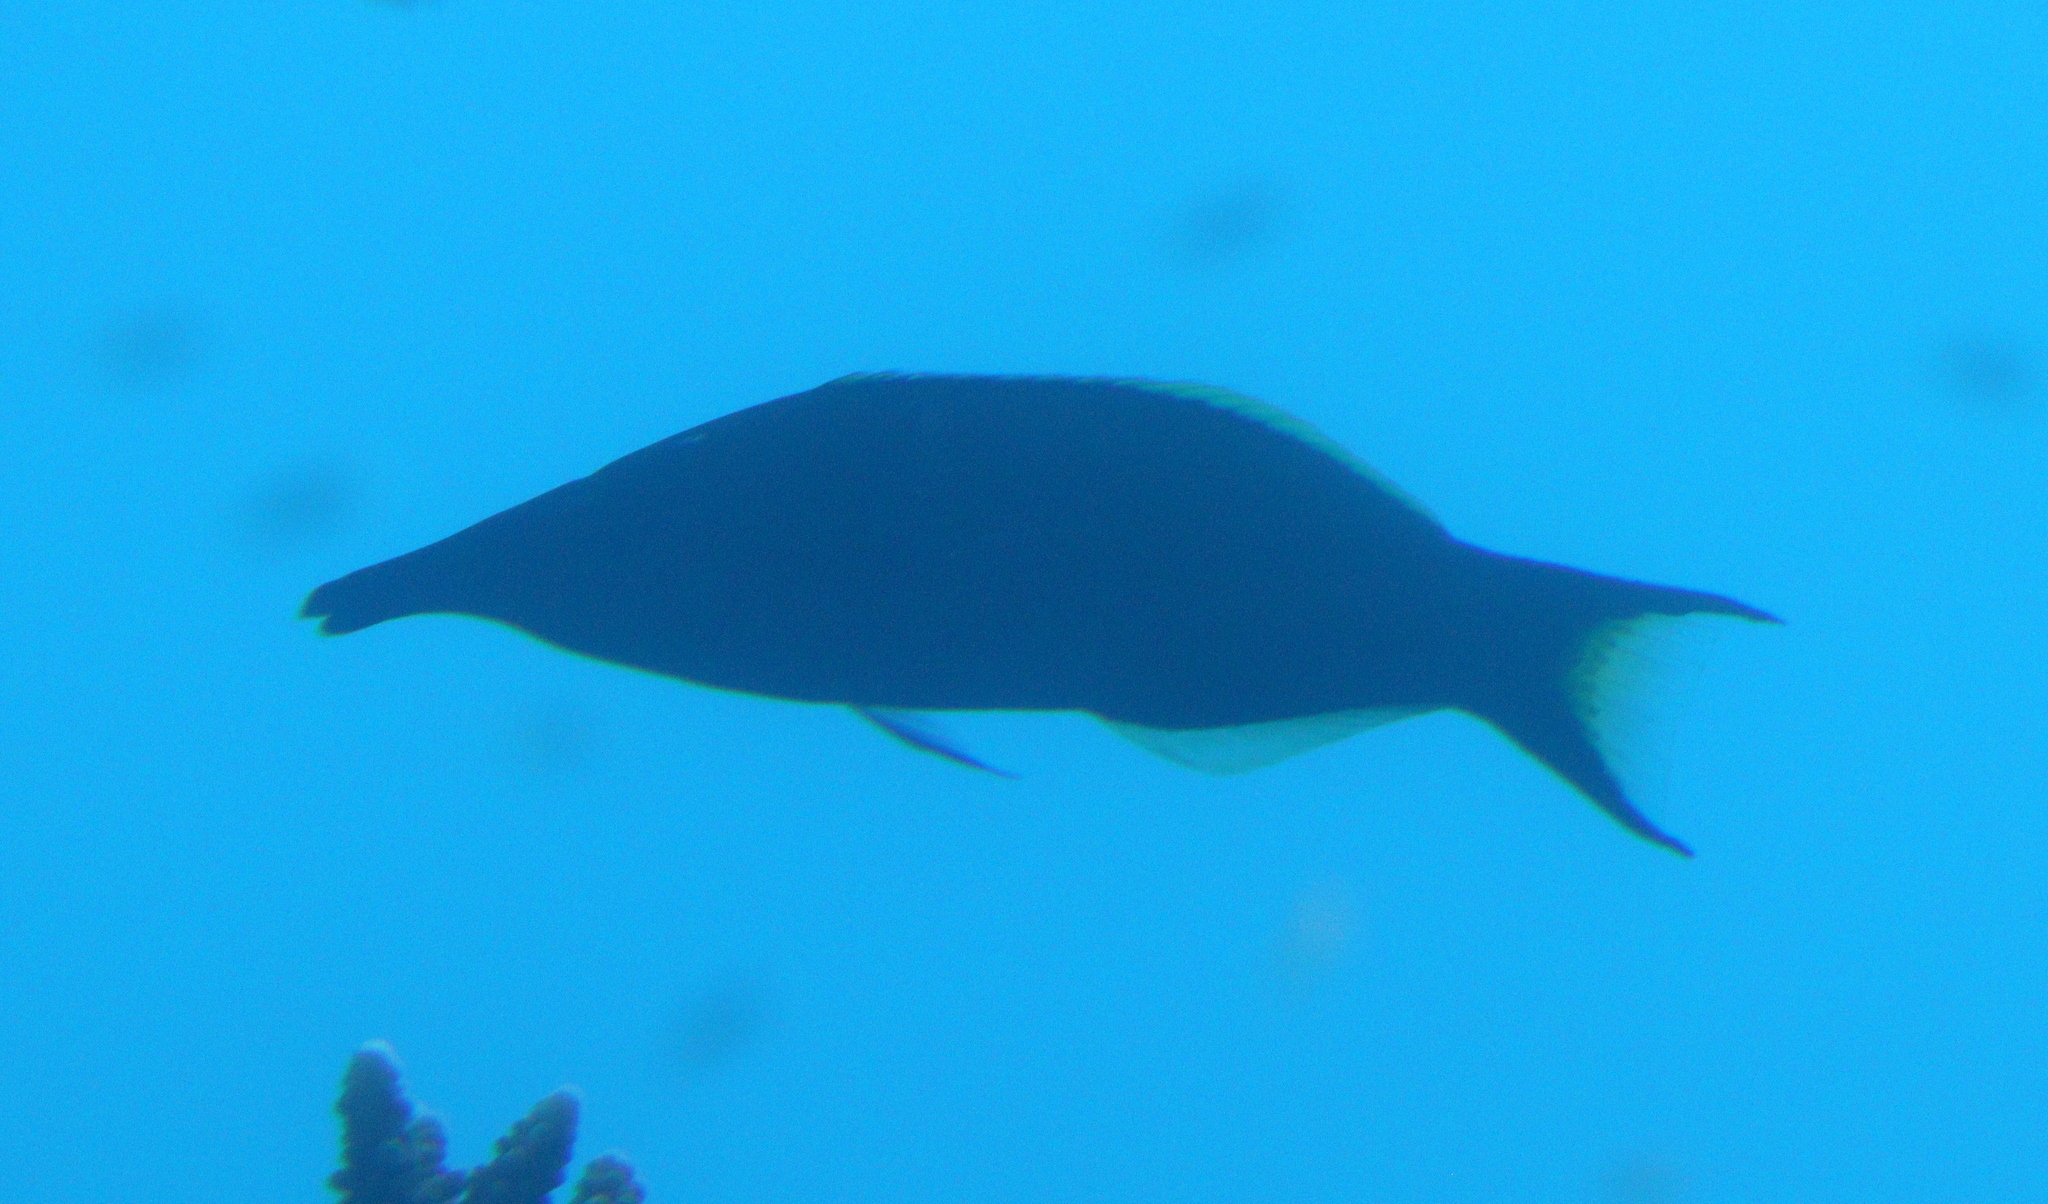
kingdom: Animalia
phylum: Chordata
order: Perciformes
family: Labridae
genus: Gomphosus
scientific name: Gomphosus klunzingeri
